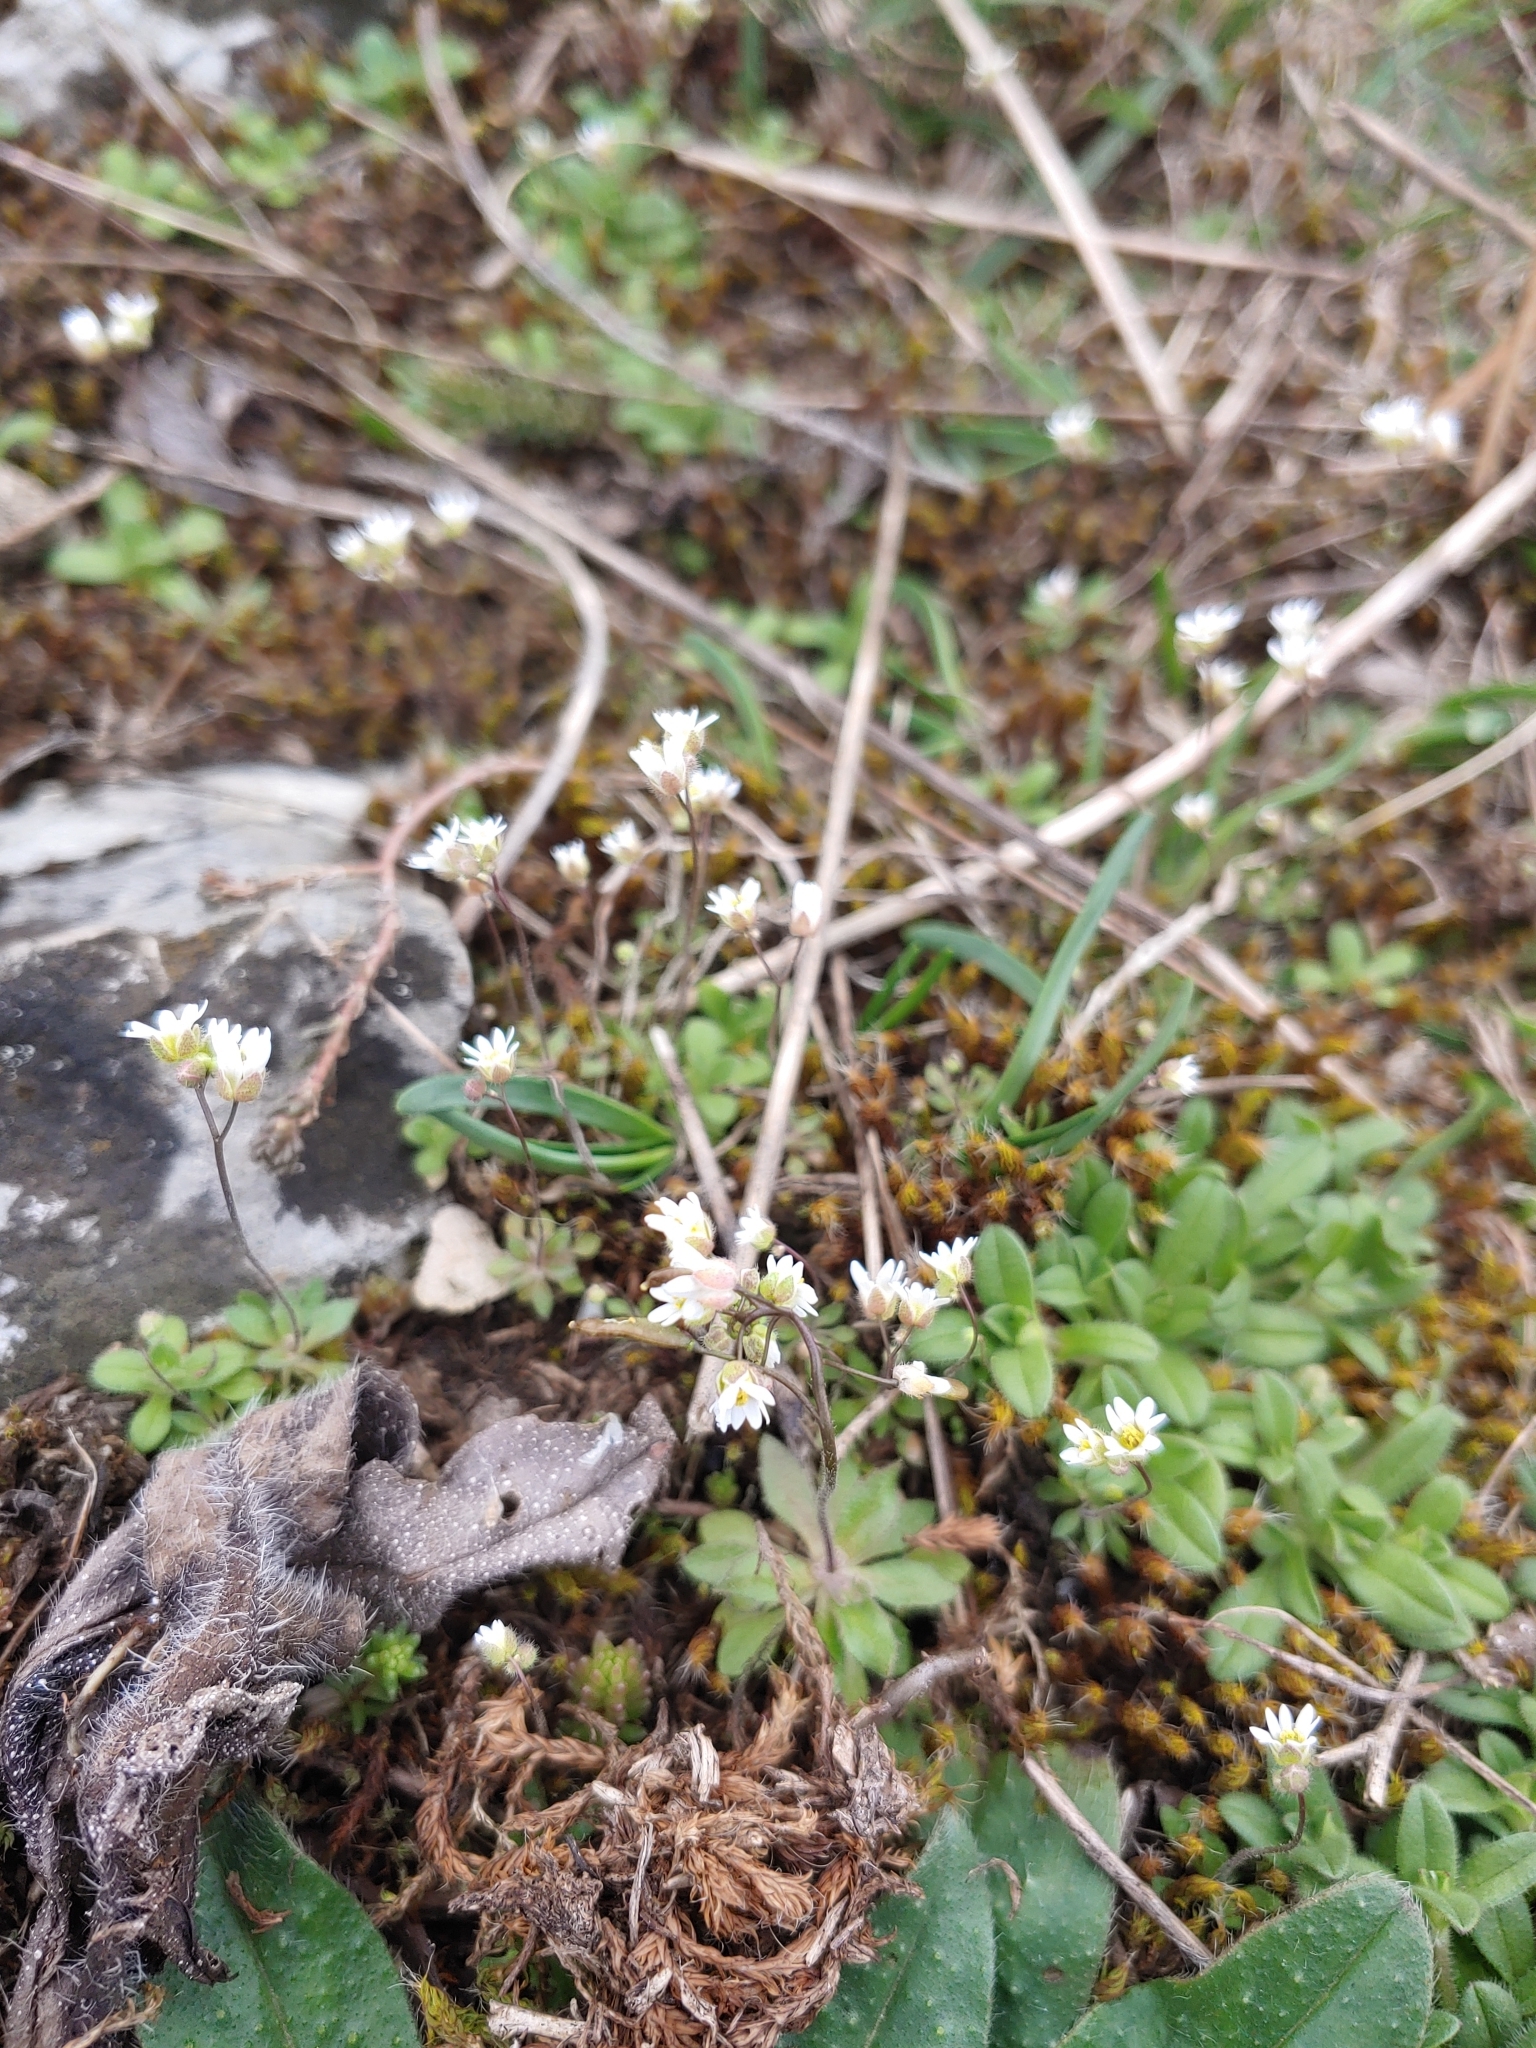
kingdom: Plantae
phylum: Tracheophyta
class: Magnoliopsida
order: Brassicales
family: Brassicaceae
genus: Draba
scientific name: Draba verna
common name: Spring draba
